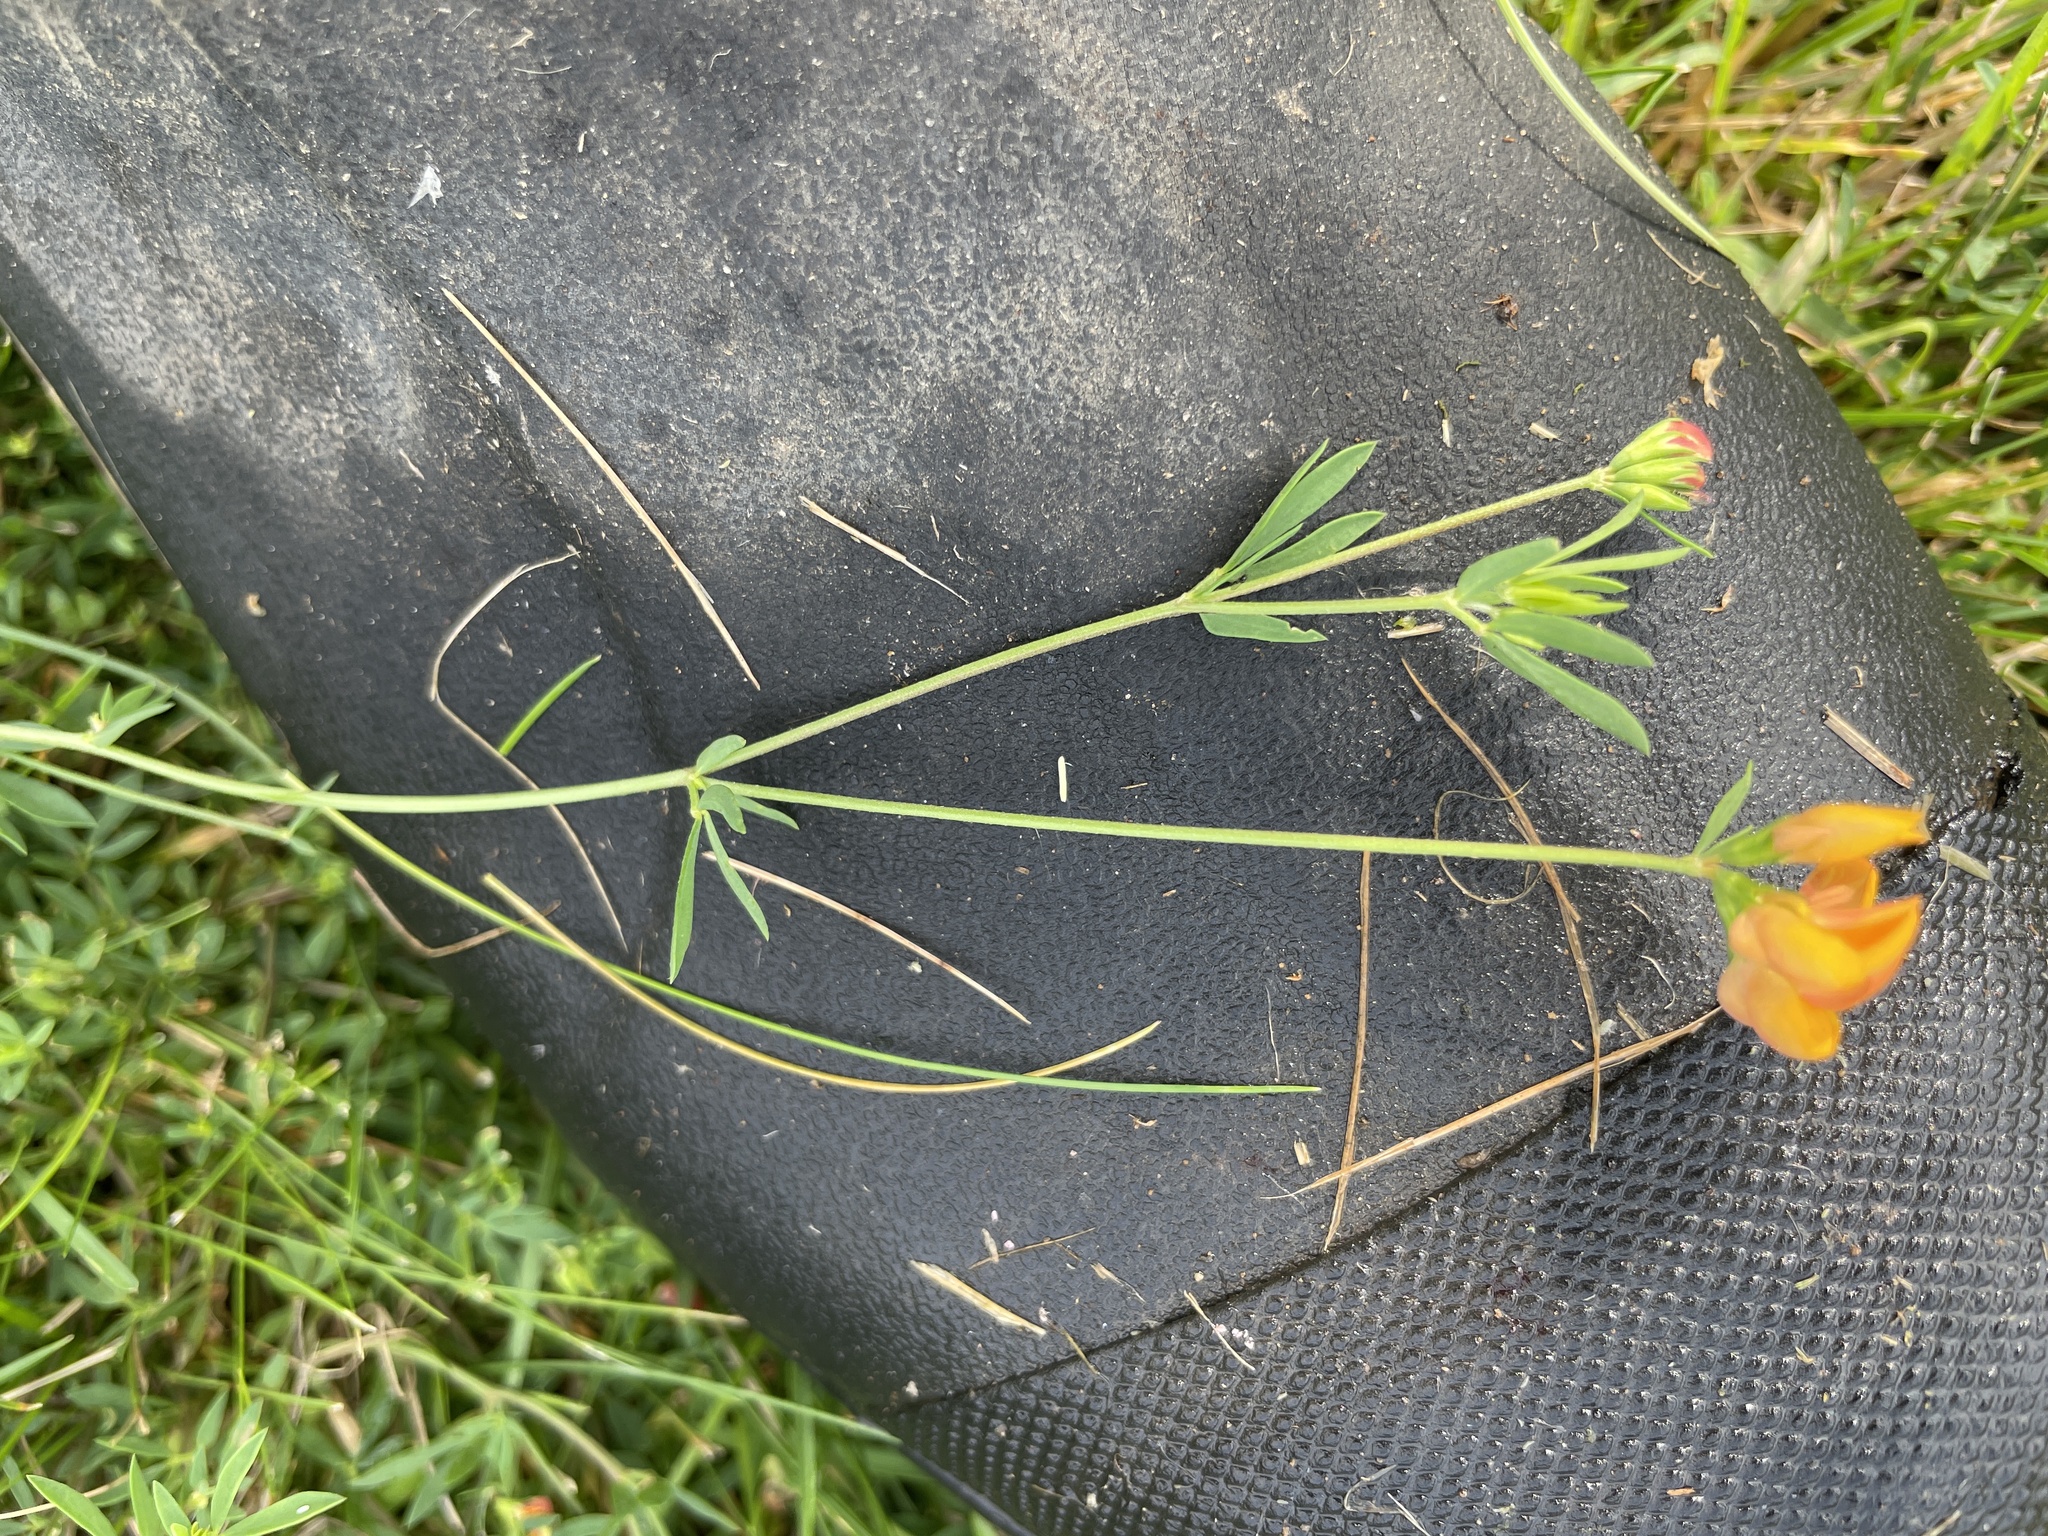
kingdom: Plantae
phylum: Tracheophyta
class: Magnoliopsida
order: Fabales
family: Fabaceae
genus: Lotus
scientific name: Lotus tenuis
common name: Narrow-leaved bird's-foot-trefoil
